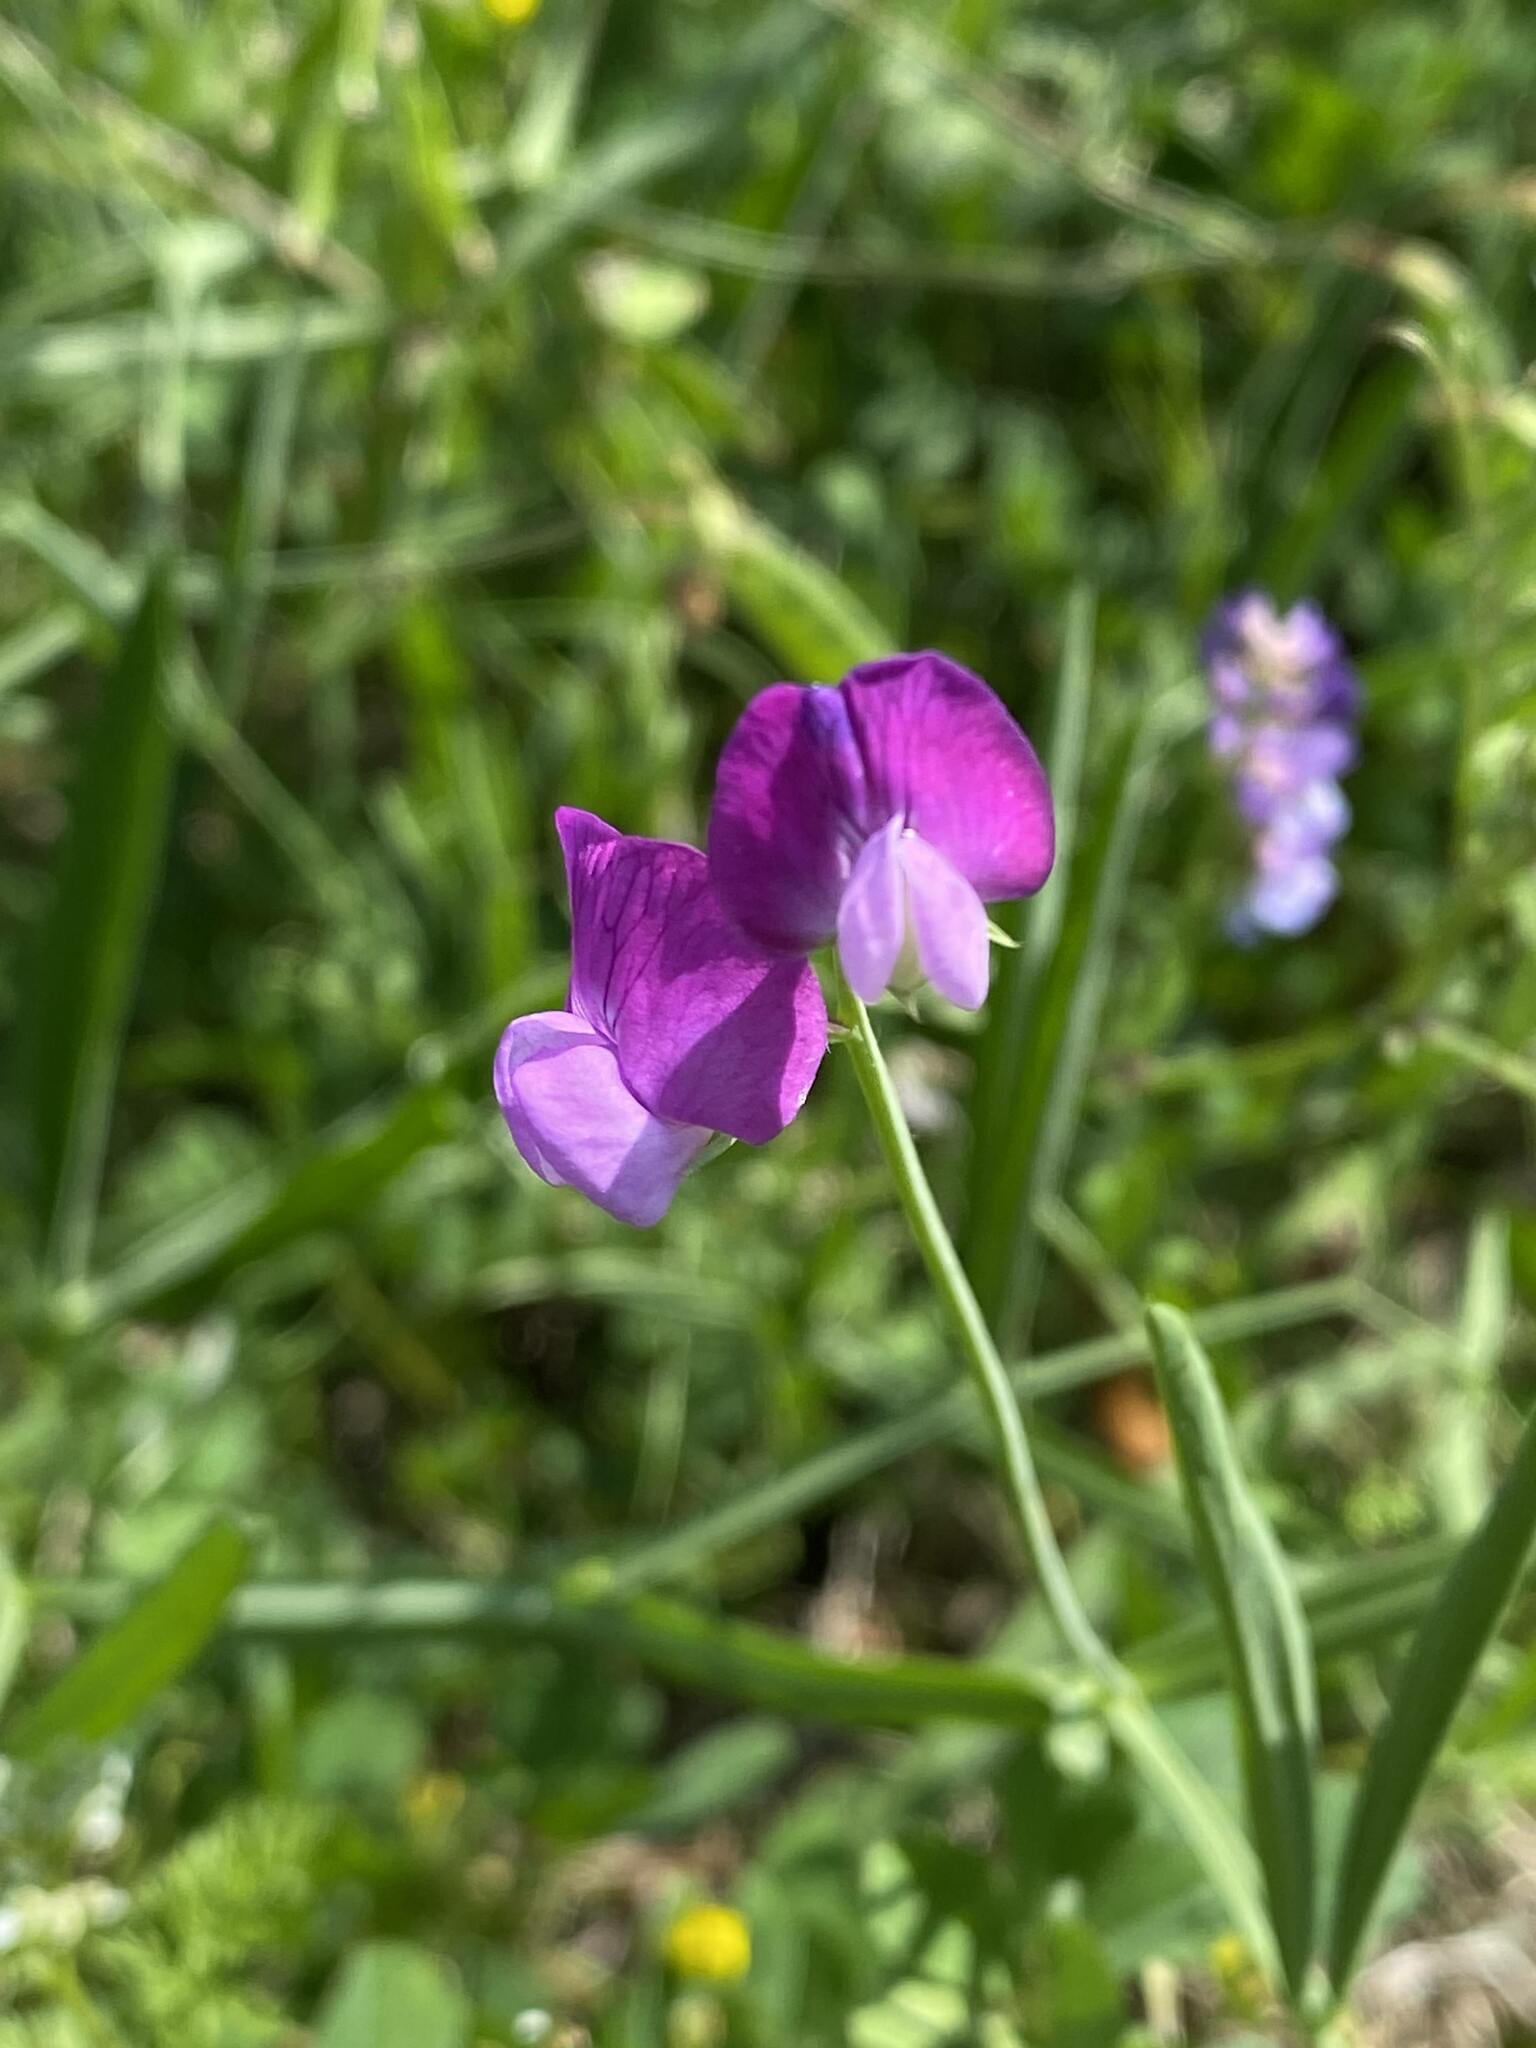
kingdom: Plantae
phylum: Tracheophyta
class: Magnoliopsida
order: Fabales
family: Fabaceae
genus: Lathyrus
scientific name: Lathyrus hirsutus
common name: Hairy vetchling
